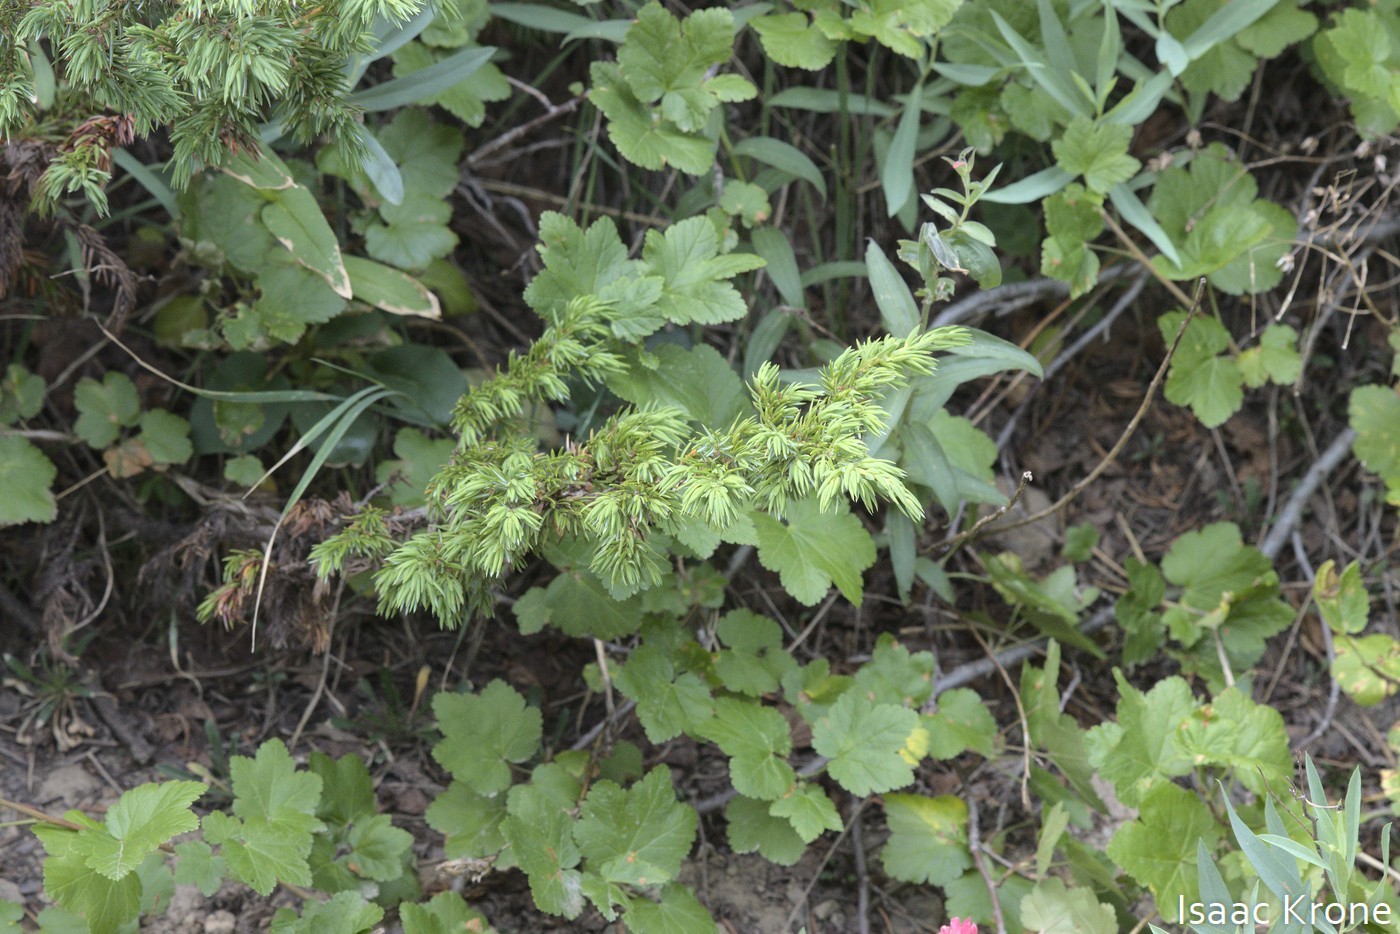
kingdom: Plantae
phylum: Tracheophyta
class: Pinopsida
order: Pinales
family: Cupressaceae
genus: Juniperus
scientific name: Juniperus communis
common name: Common juniper
